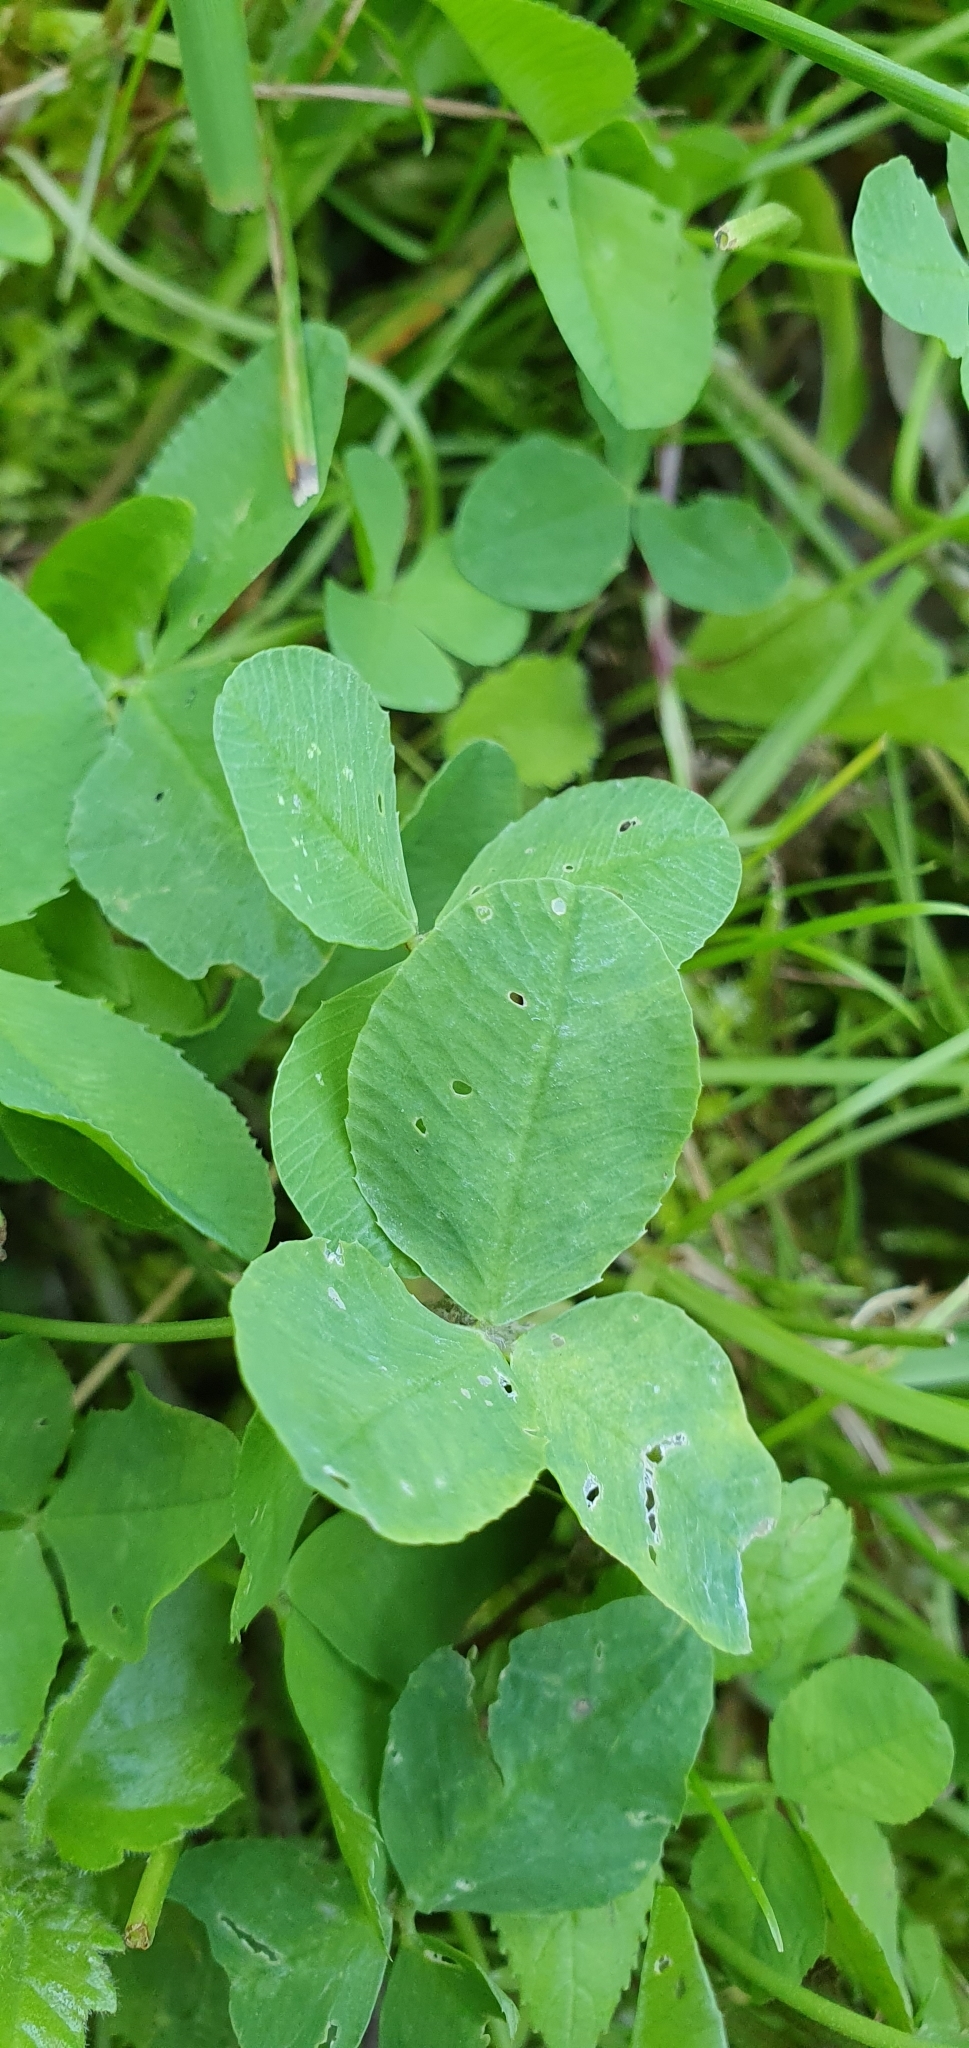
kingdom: Plantae
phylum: Tracheophyta
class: Magnoliopsida
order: Fabales
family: Fabaceae
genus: Trifolium
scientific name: Trifolium repens
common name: White clover
